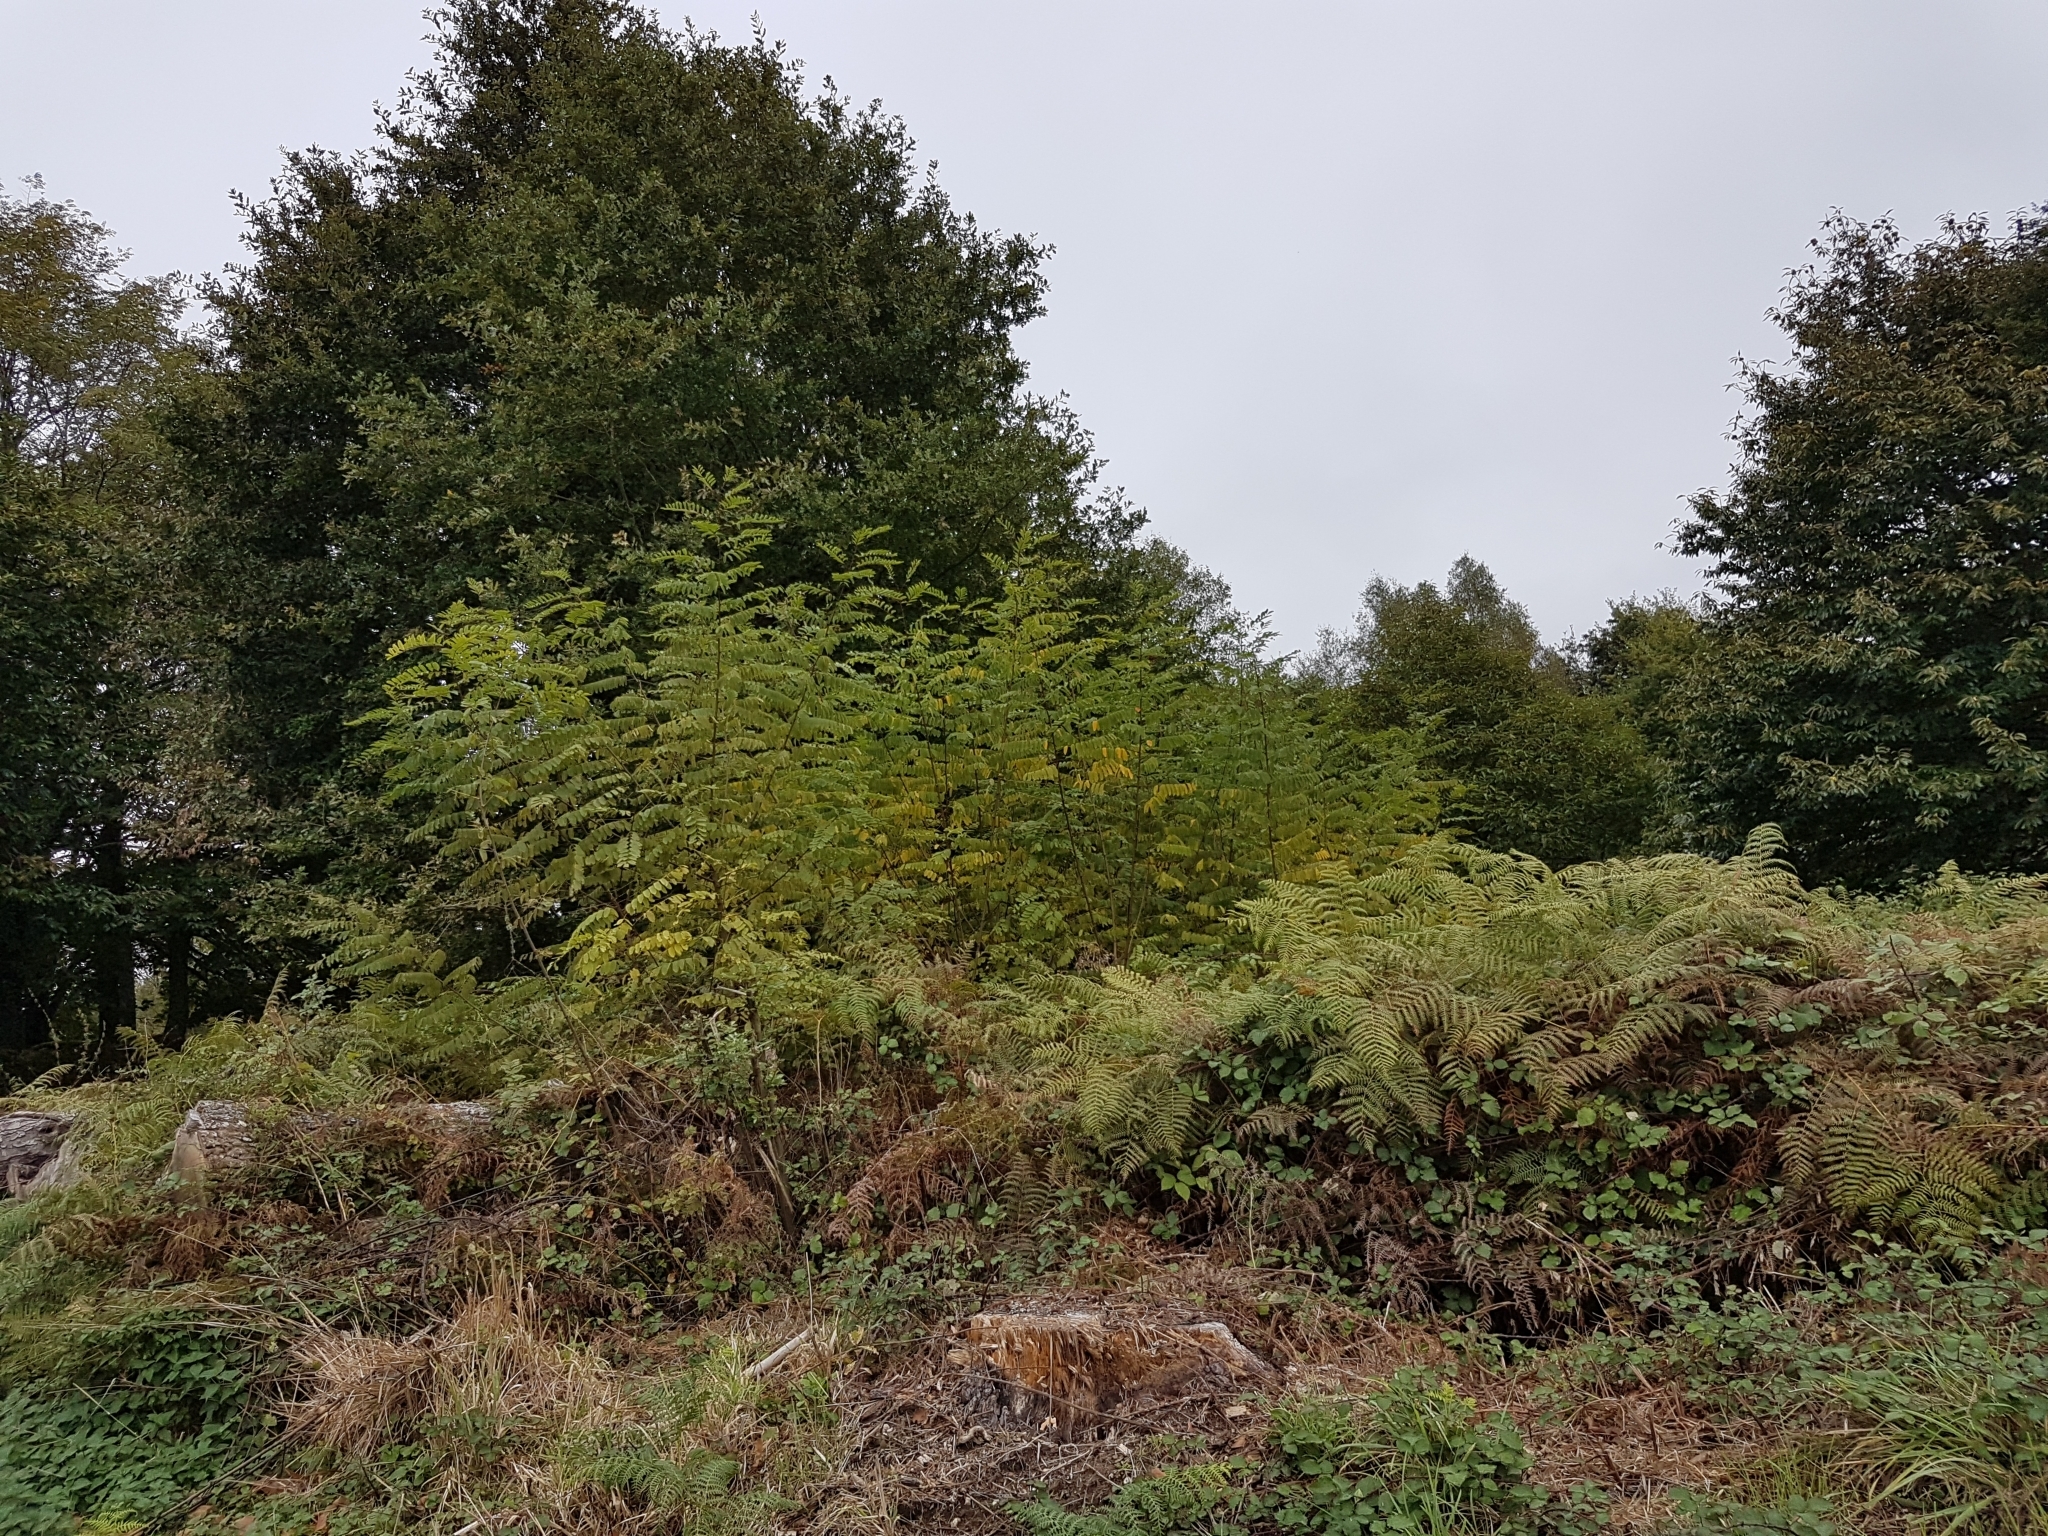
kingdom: Plantae
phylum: Tracheophyta
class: Magnoliopsida
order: Fabales
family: Fabaceae
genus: Robinia
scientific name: Robinia pseudoacacia
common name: Black locust
